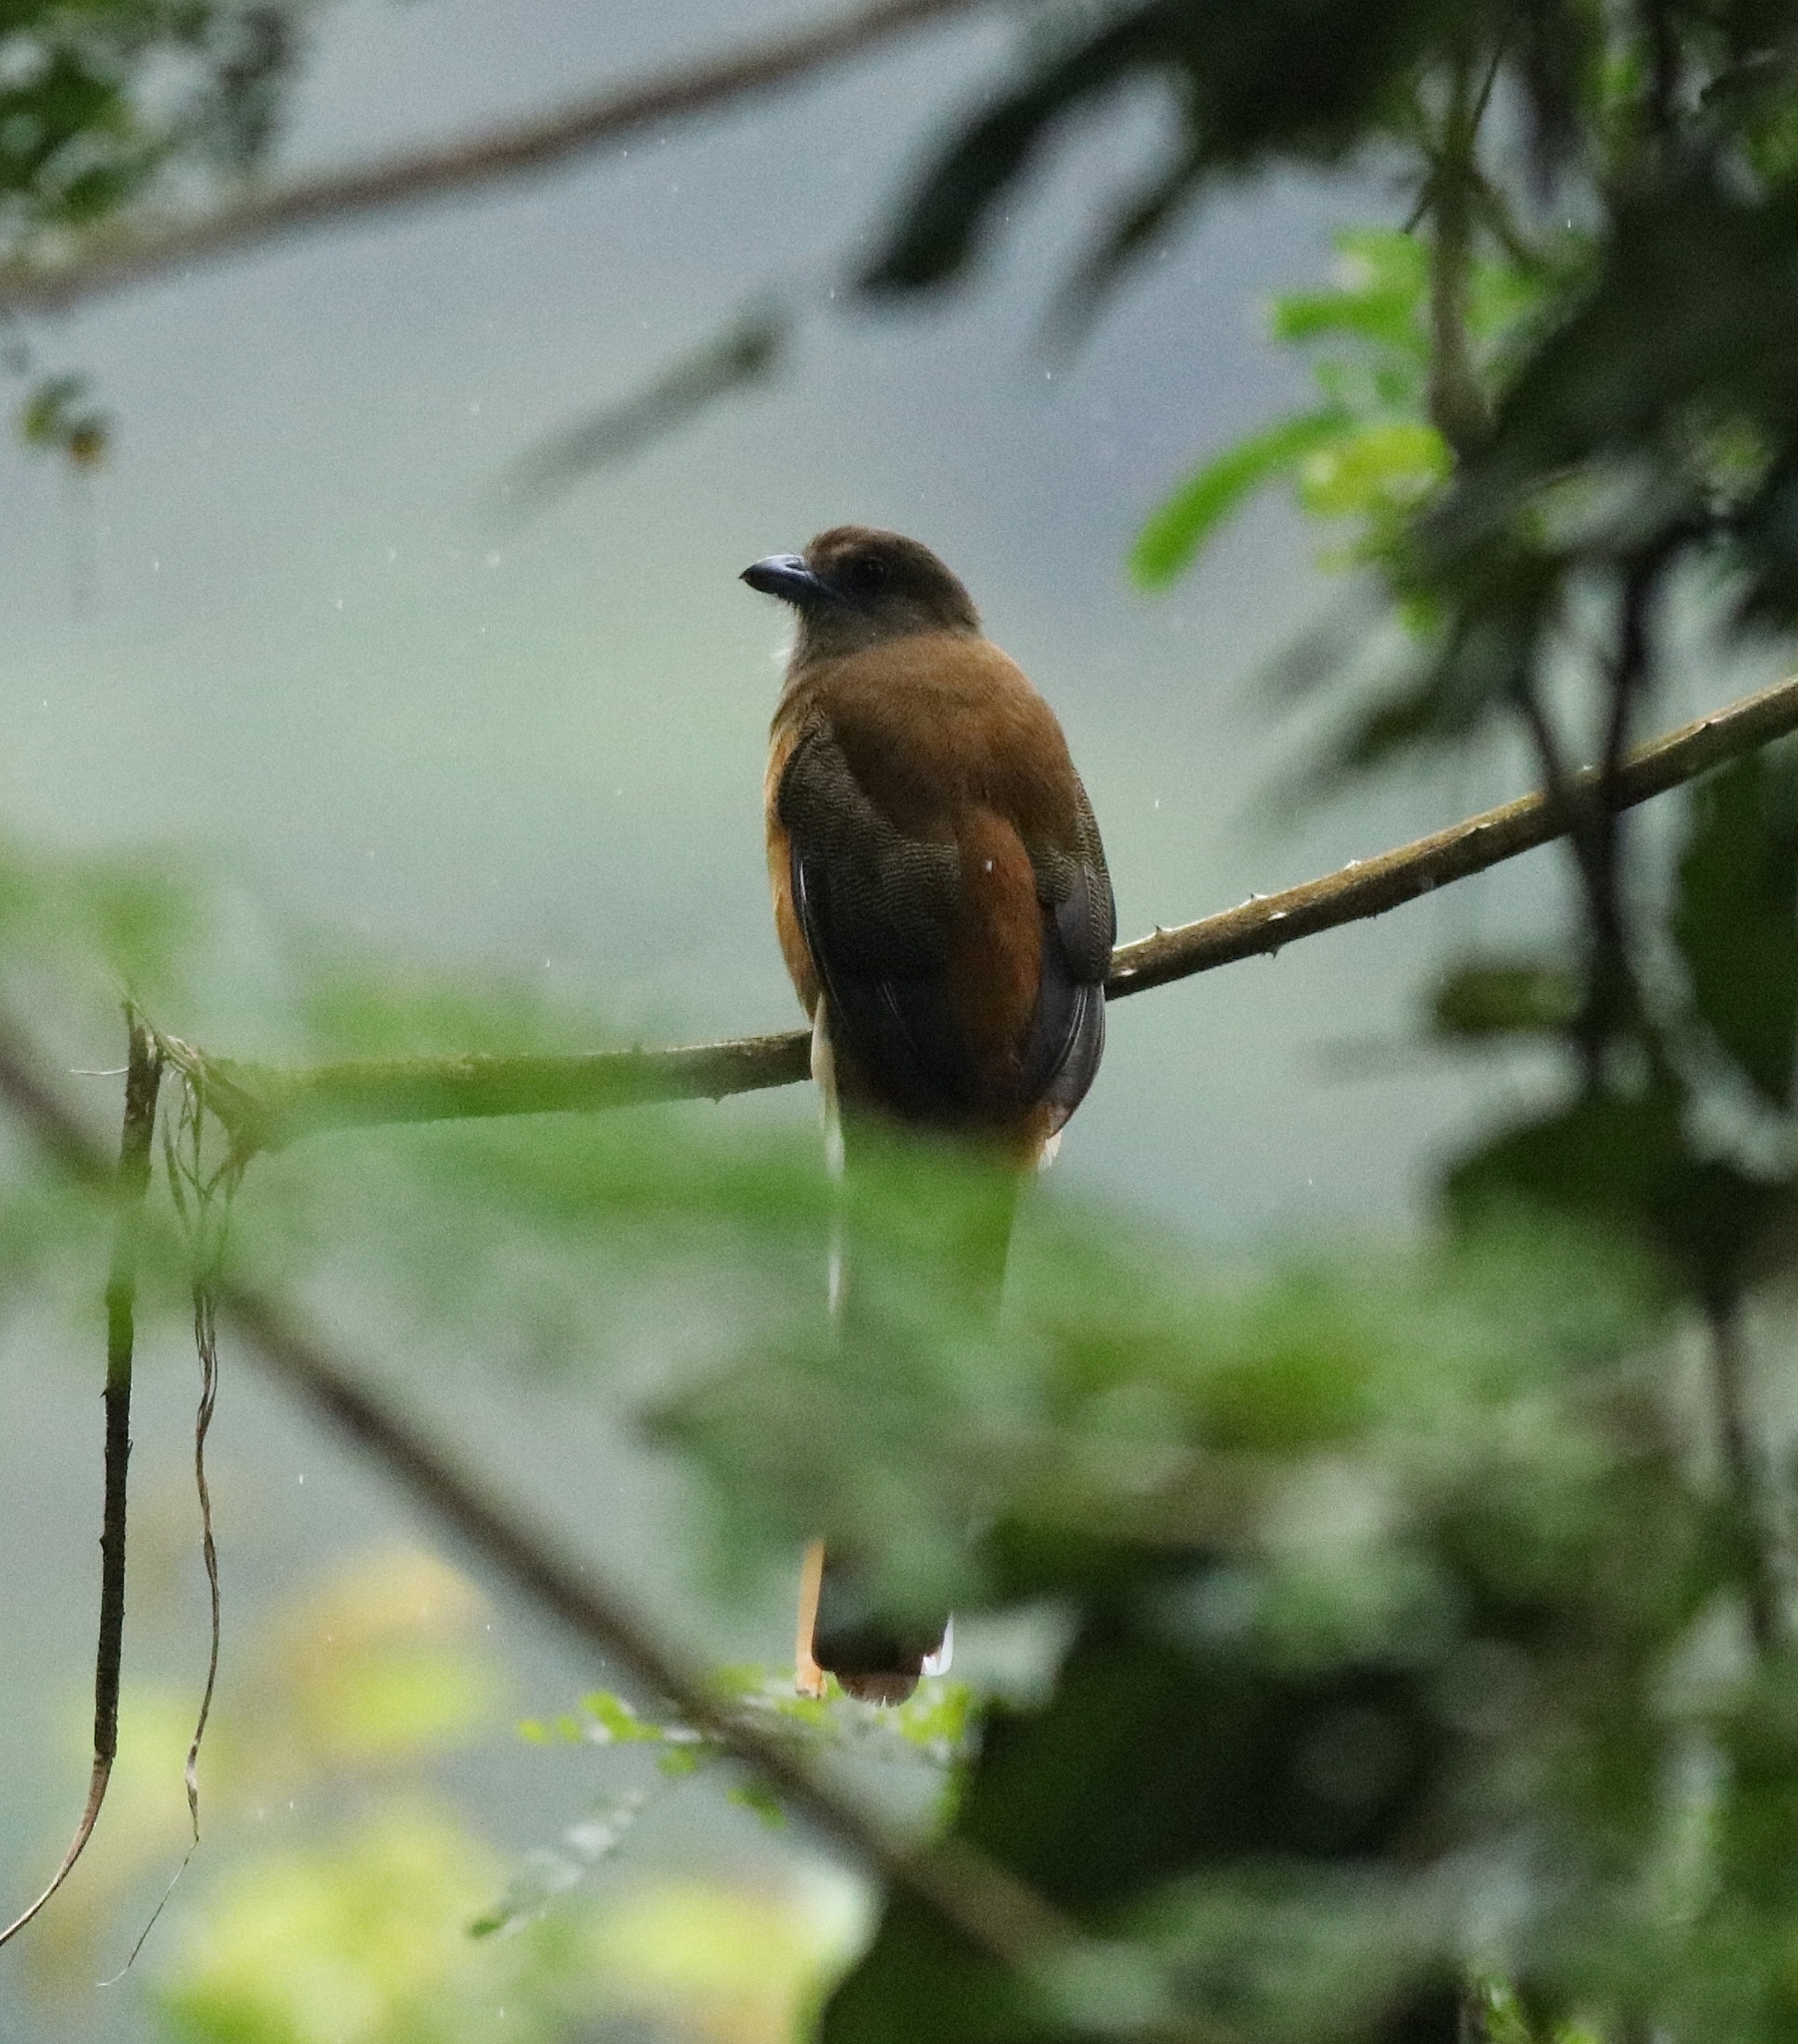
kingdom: Animalia
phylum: Chordata
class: Aves
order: Trogoniformes
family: Trogonidae
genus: Harpactes
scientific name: Harpactes fasciatus
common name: Malabar trogon
